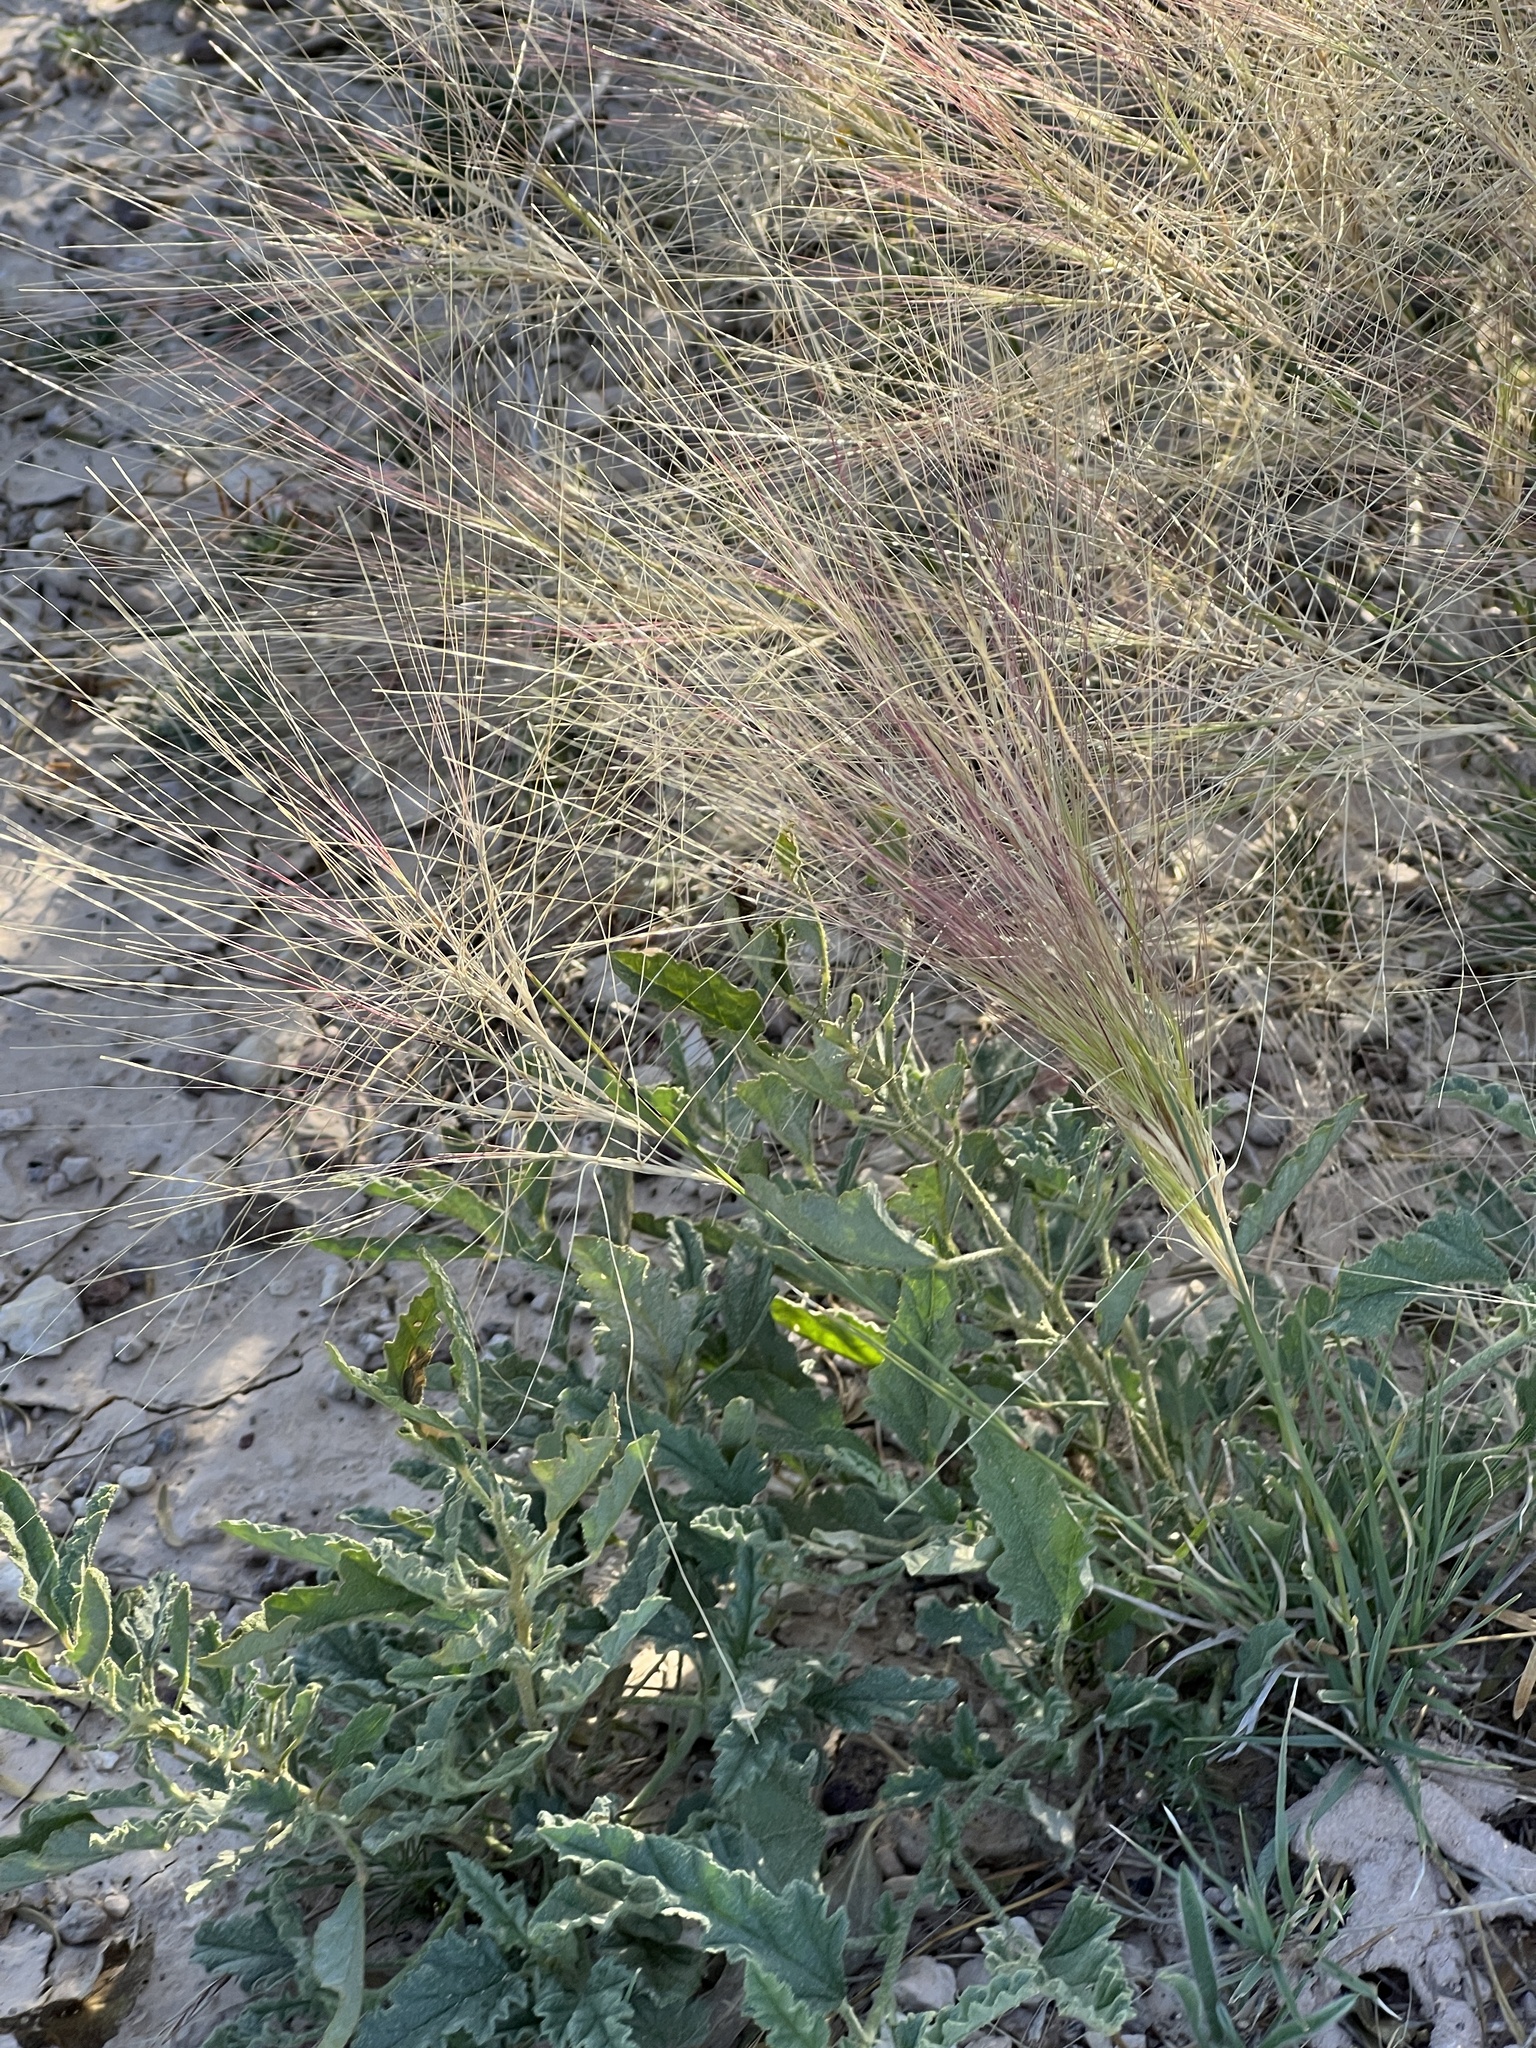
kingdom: Plantae
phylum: Tracheophyta
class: Liliopsida
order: Poales
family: Poaceae
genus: Scleropogon
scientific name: Scleropogon brevifolius
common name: Burro grass
